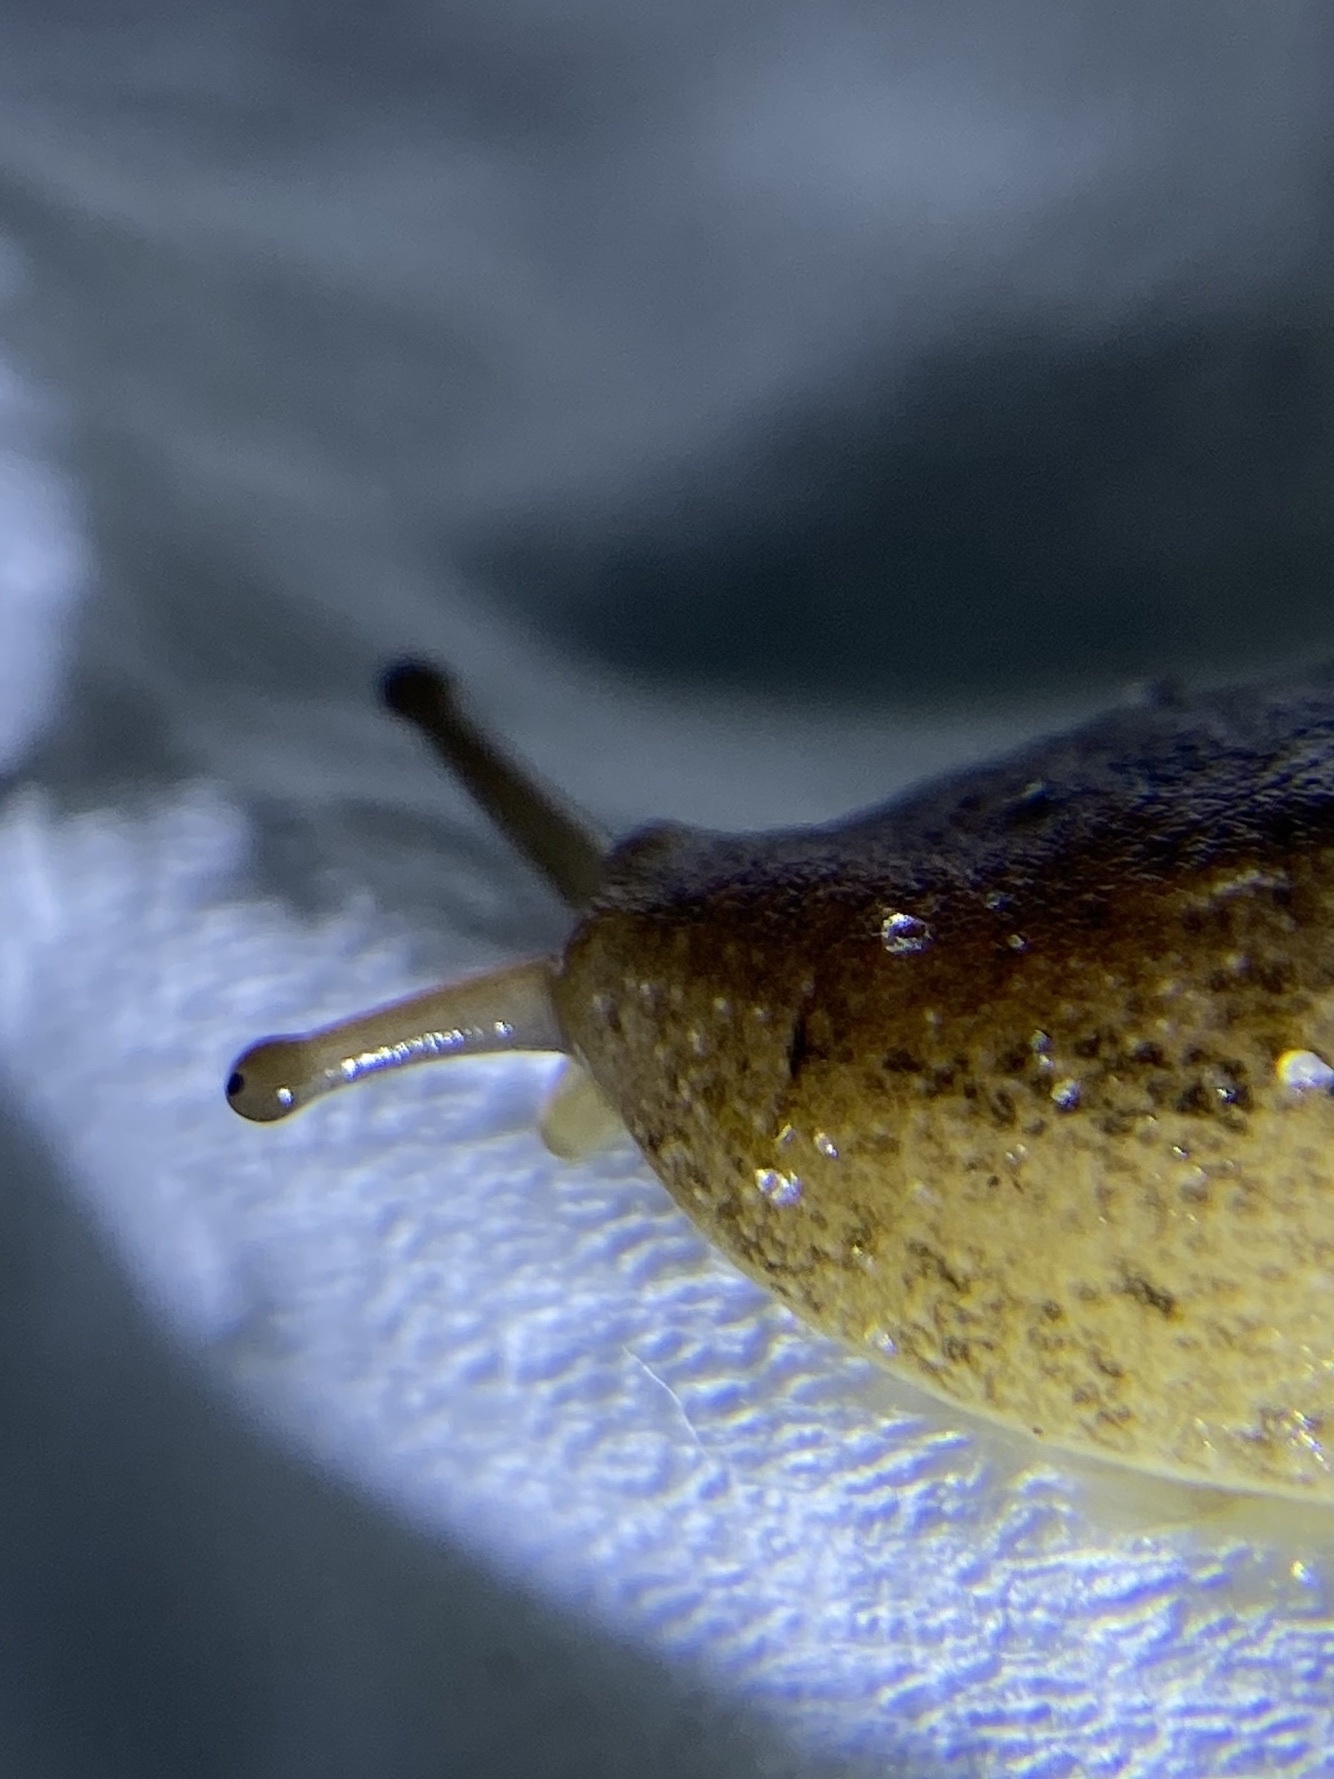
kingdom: Animalia
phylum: Mollusca
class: Gastropoda
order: Systellommatophora
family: Veronicellidae
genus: Leidyula
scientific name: Leidyula floridana
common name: Florida leatherleaf
